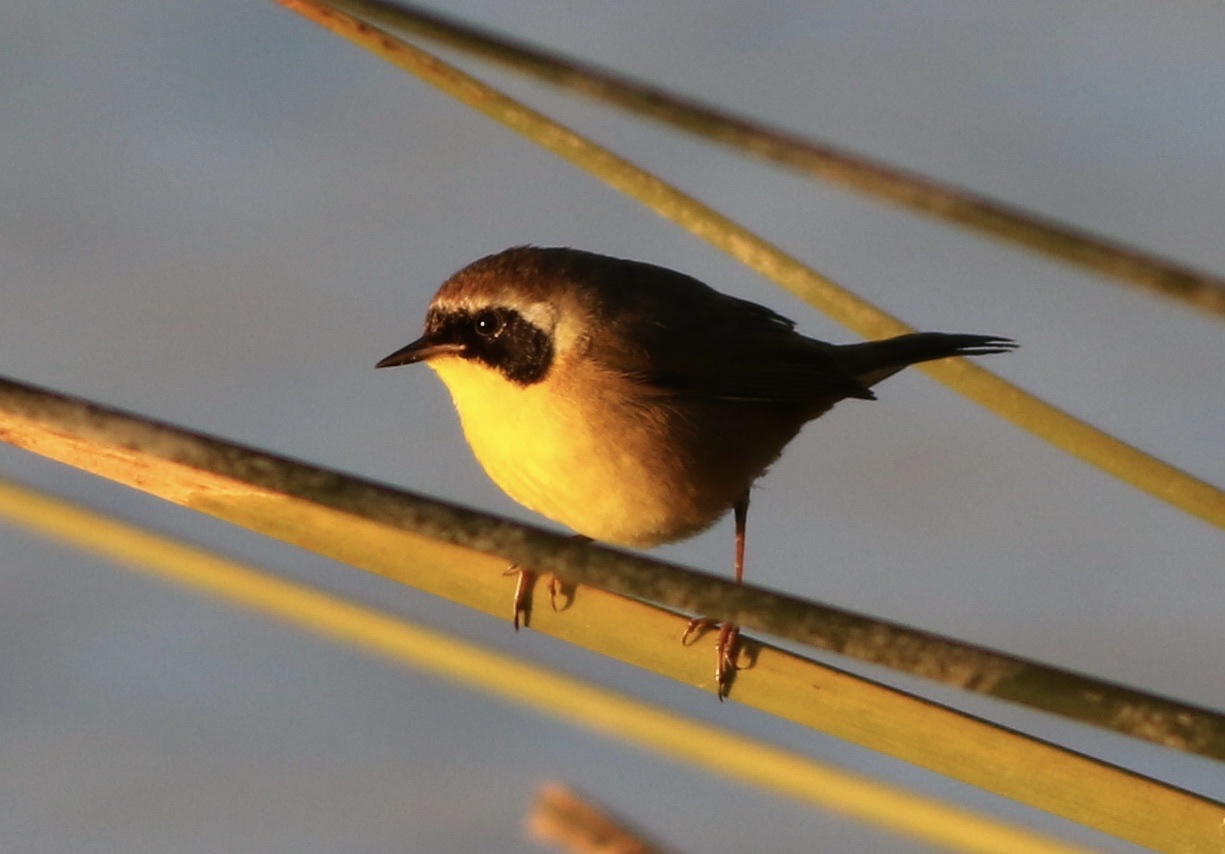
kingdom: Animalia
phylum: Chordata
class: Aves
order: Passeriformes
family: Parulidae
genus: Geothlypis
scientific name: Geothlypis trichas
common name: Common yellowthroat
